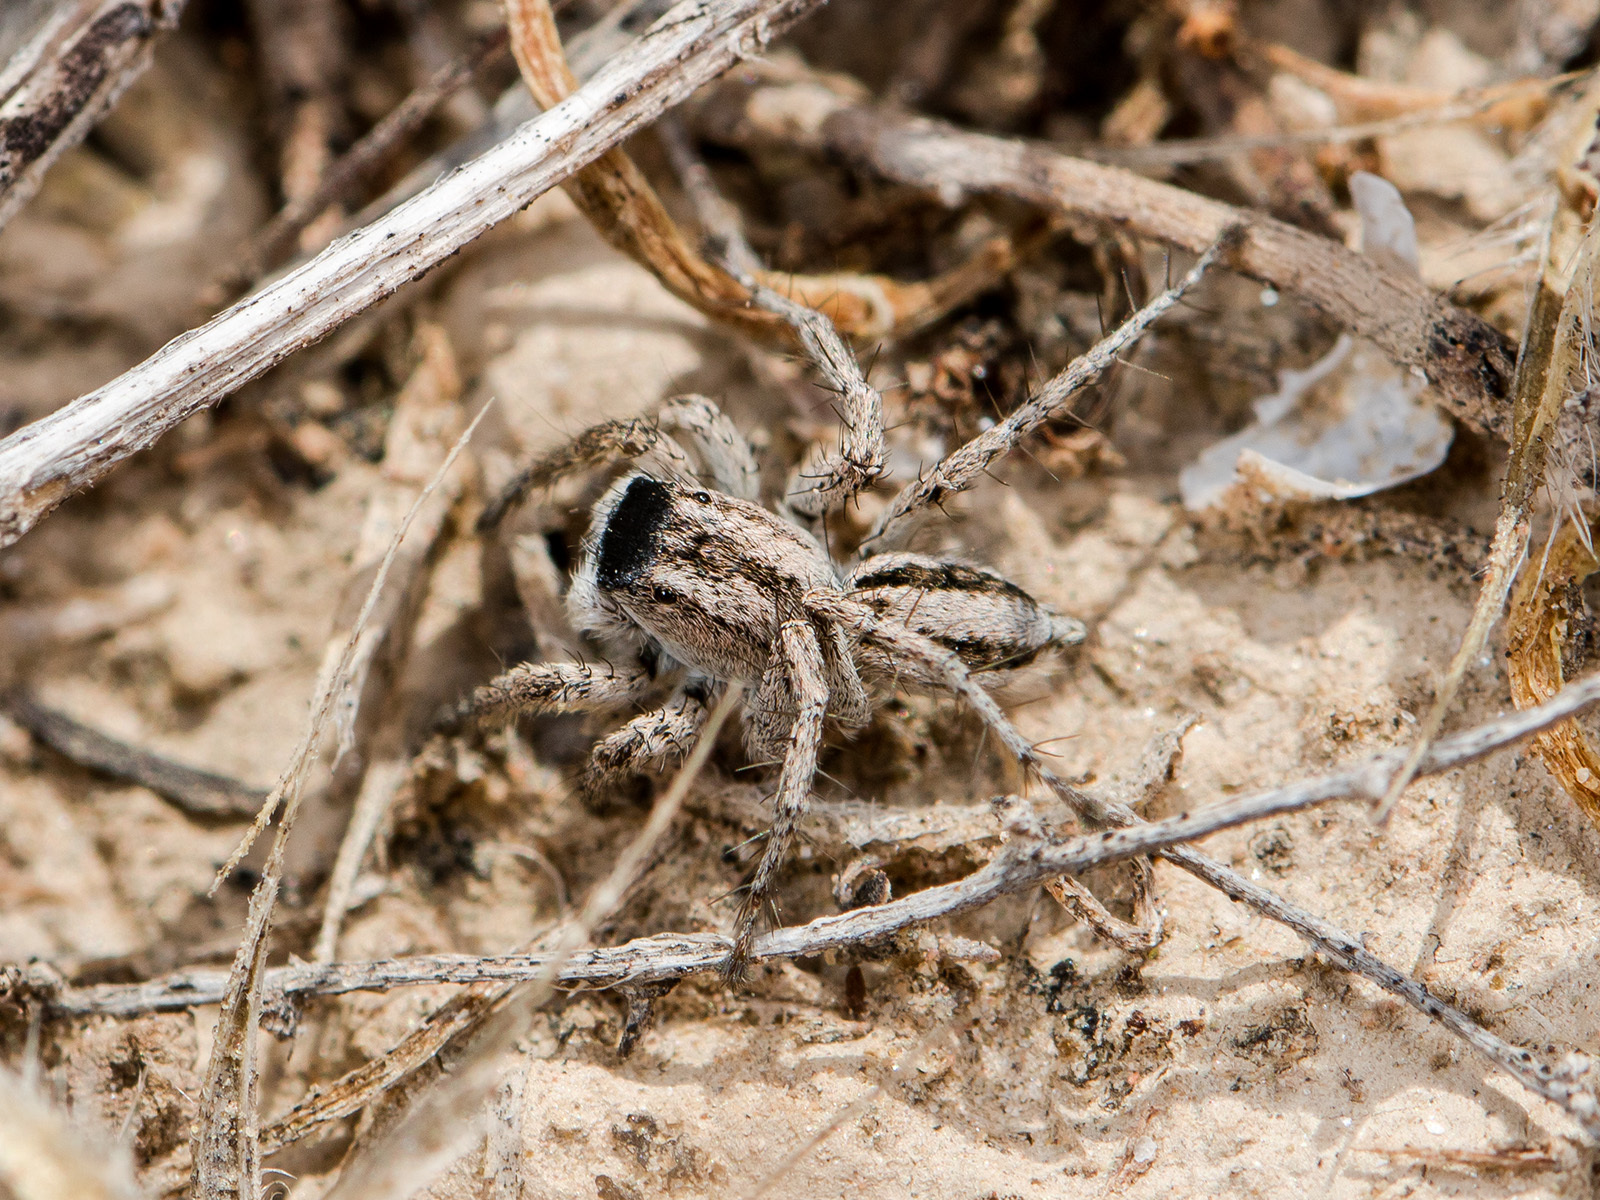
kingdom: Animalia
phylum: Arthropoda
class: Arachnida
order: Araneae
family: Salticidae
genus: Aelurillus
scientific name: Aelurillus m-nigrum
